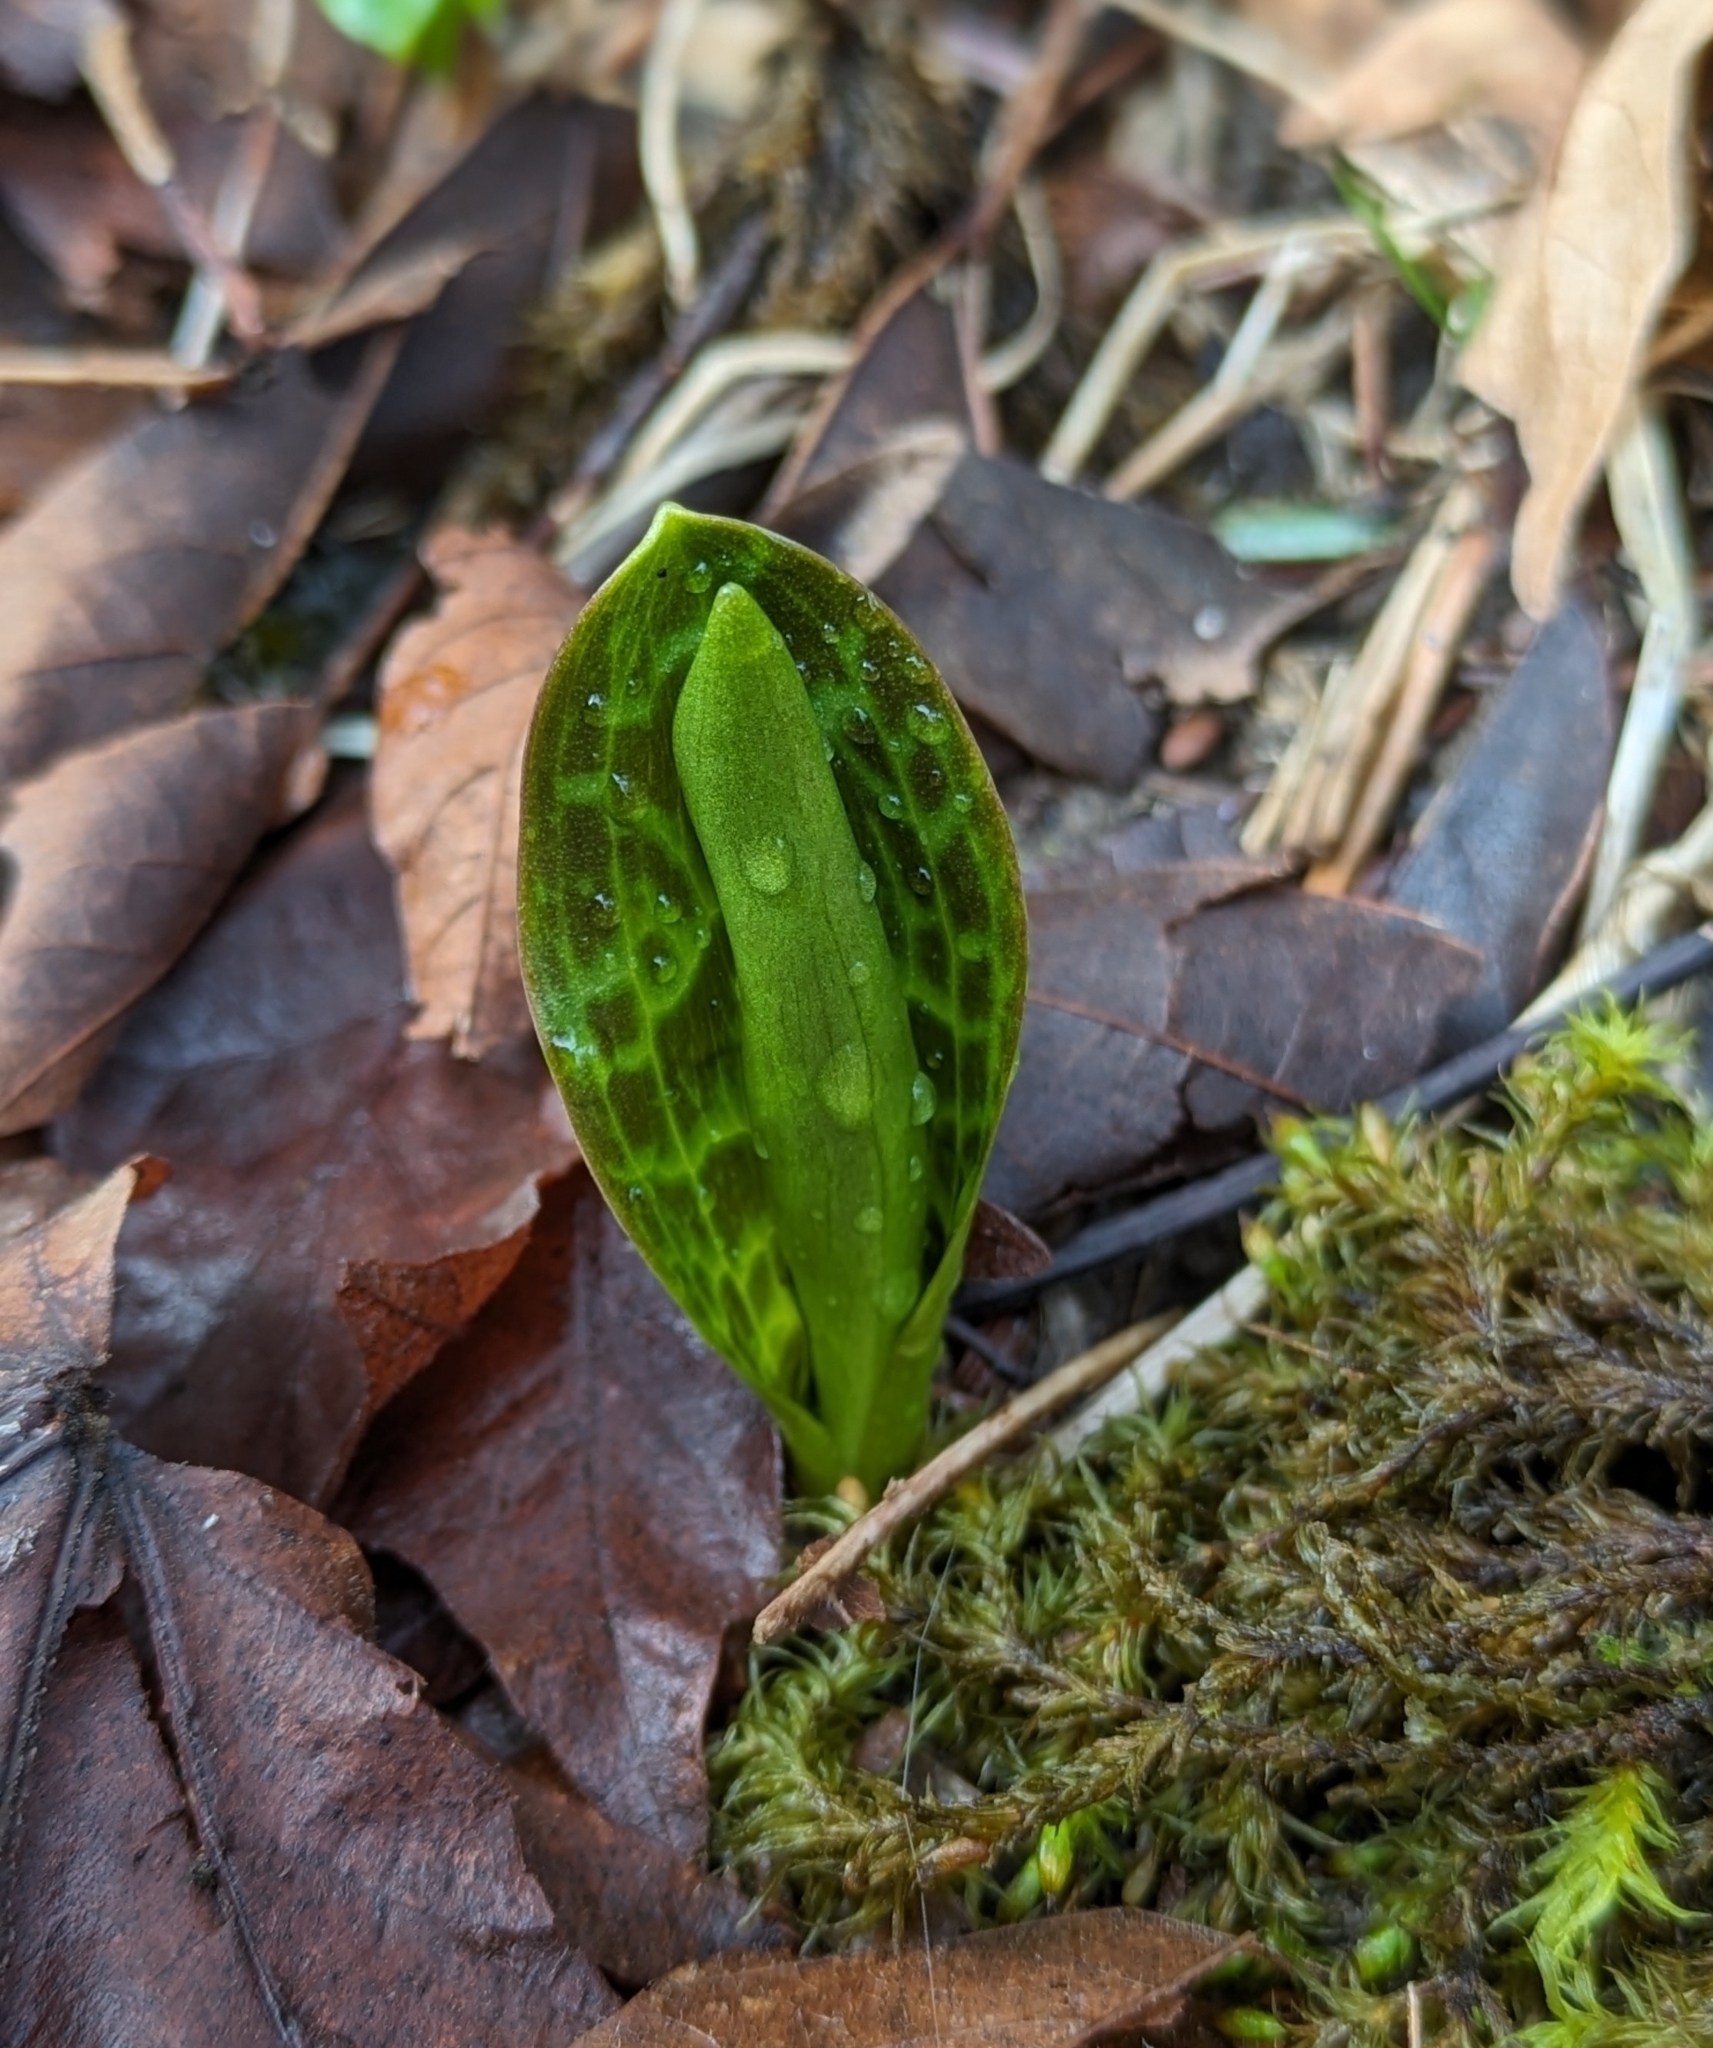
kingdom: Plantae
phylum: Tracheophyta
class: Liliopsida
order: Liliales
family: Liliaceae
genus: Erythronium
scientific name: Erythronium oregonum
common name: Giant adder's-tongue
